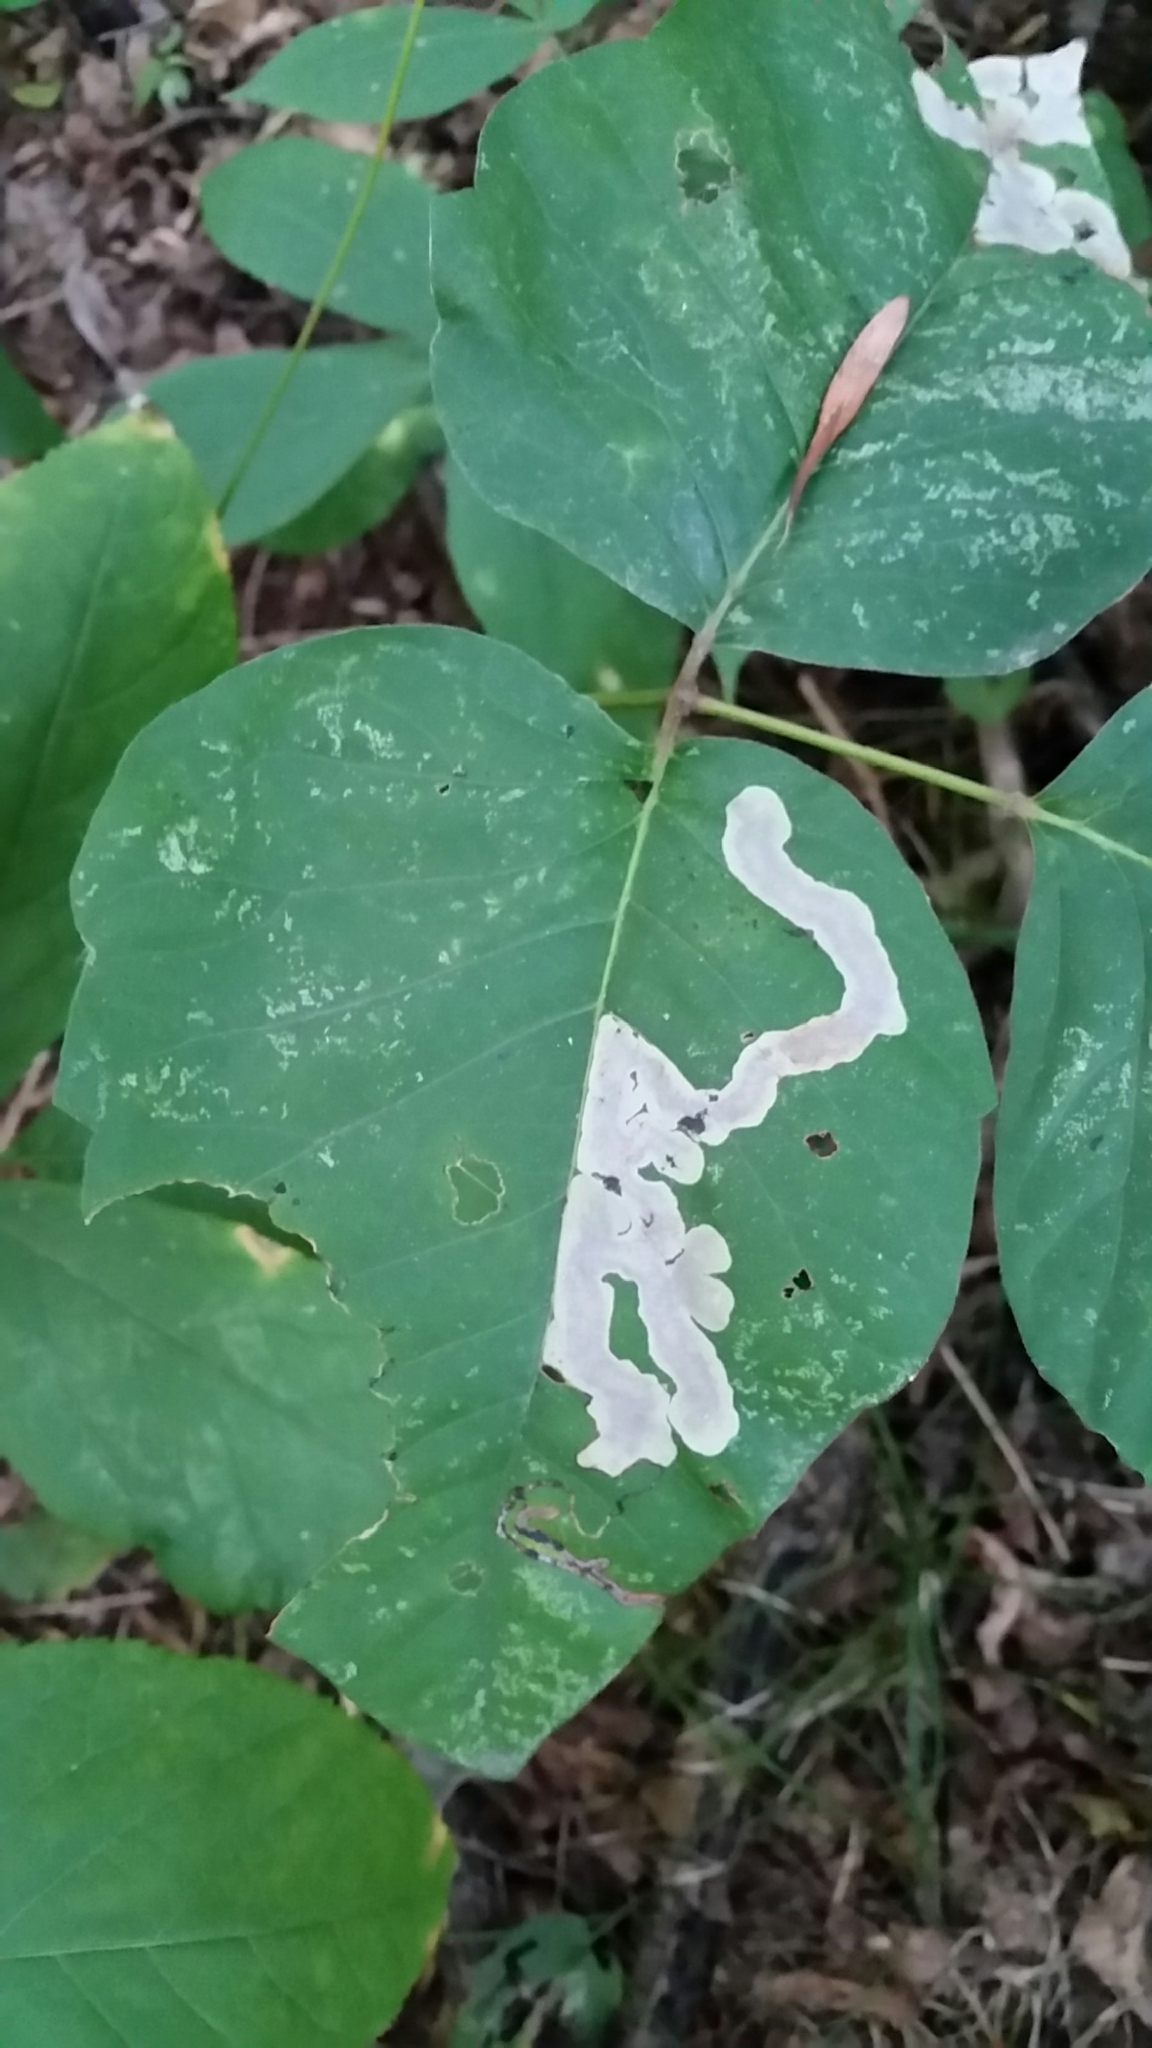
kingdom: Animalia
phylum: Arthropoda
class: Insecta
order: Lepidoptera
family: Gracillariidae
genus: Cameraria
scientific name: Cameraria guttifinitella
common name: Poison ivy leaf-miner moth
